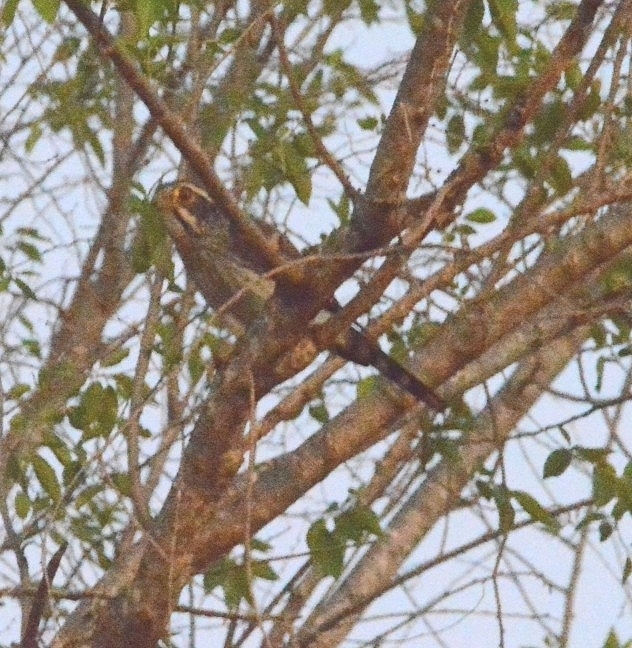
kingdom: Animalia
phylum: Chordata
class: Aves
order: Falconiformes
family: Falconidae
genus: Spiziapteryx
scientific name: Spiziapteryx circumcincta
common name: Spot-winged falconet
